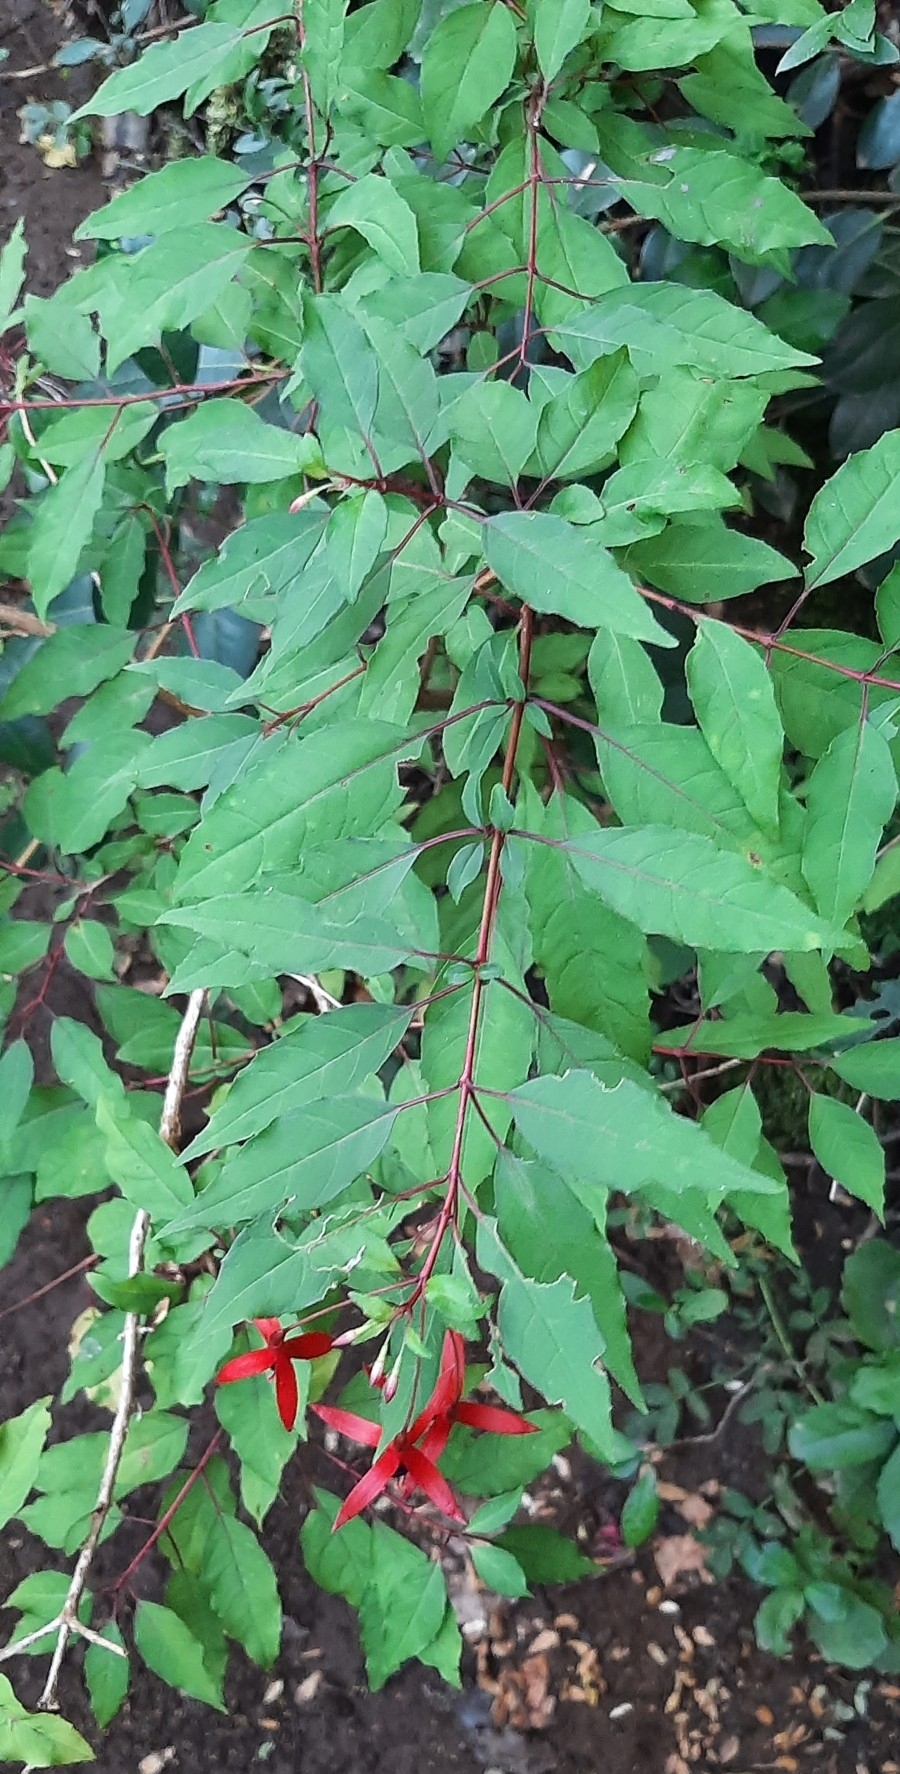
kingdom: Plantae
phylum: Tracheophyta
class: Magnoliopsida
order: Myrtales
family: Onagraceae
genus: Fuchsia
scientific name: Fuchsia magellanica
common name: Hardy fuchsia
